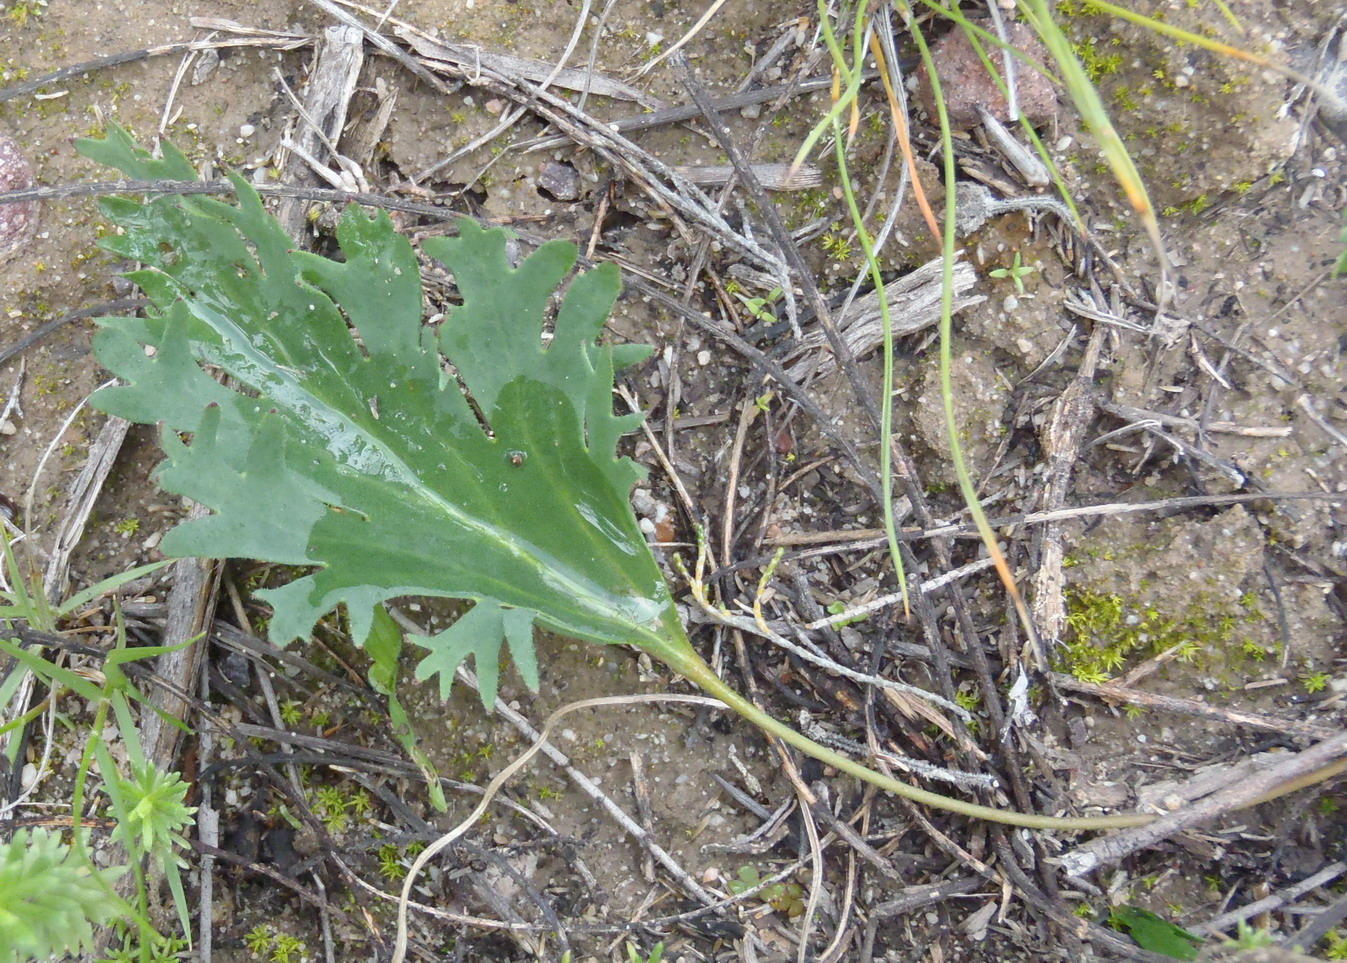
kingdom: Plantae
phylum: Tracheophyta
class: Magnoliopsida
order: Geraniales
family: Geraniaceae
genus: Pelargonium
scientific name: Pelargonium pillansii
